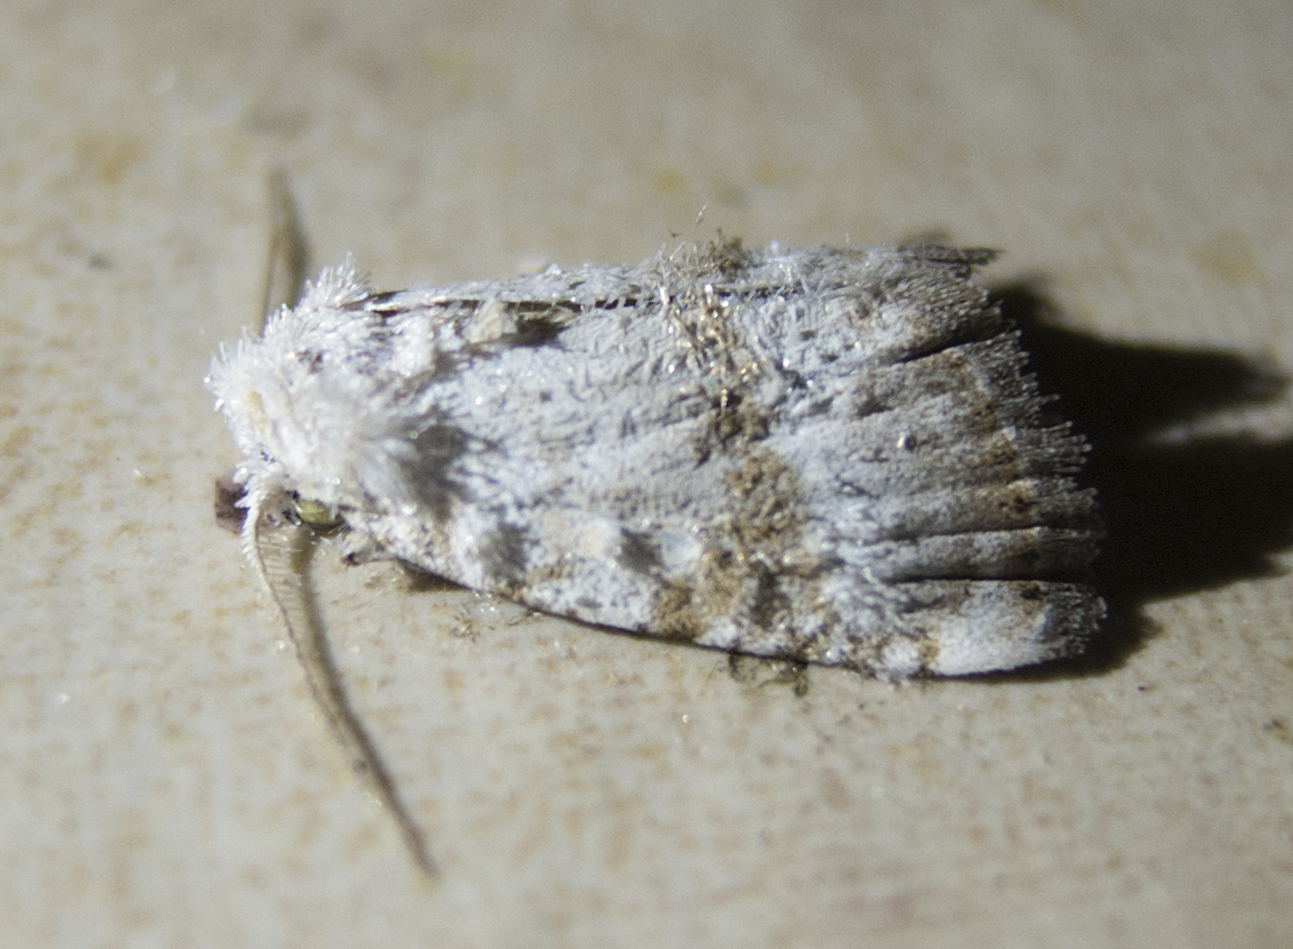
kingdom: Animalia
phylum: Arthropoda
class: Insecta
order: Lepidoptera
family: Nolidae
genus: Meganola
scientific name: Meganola albula
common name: Kent black arches
